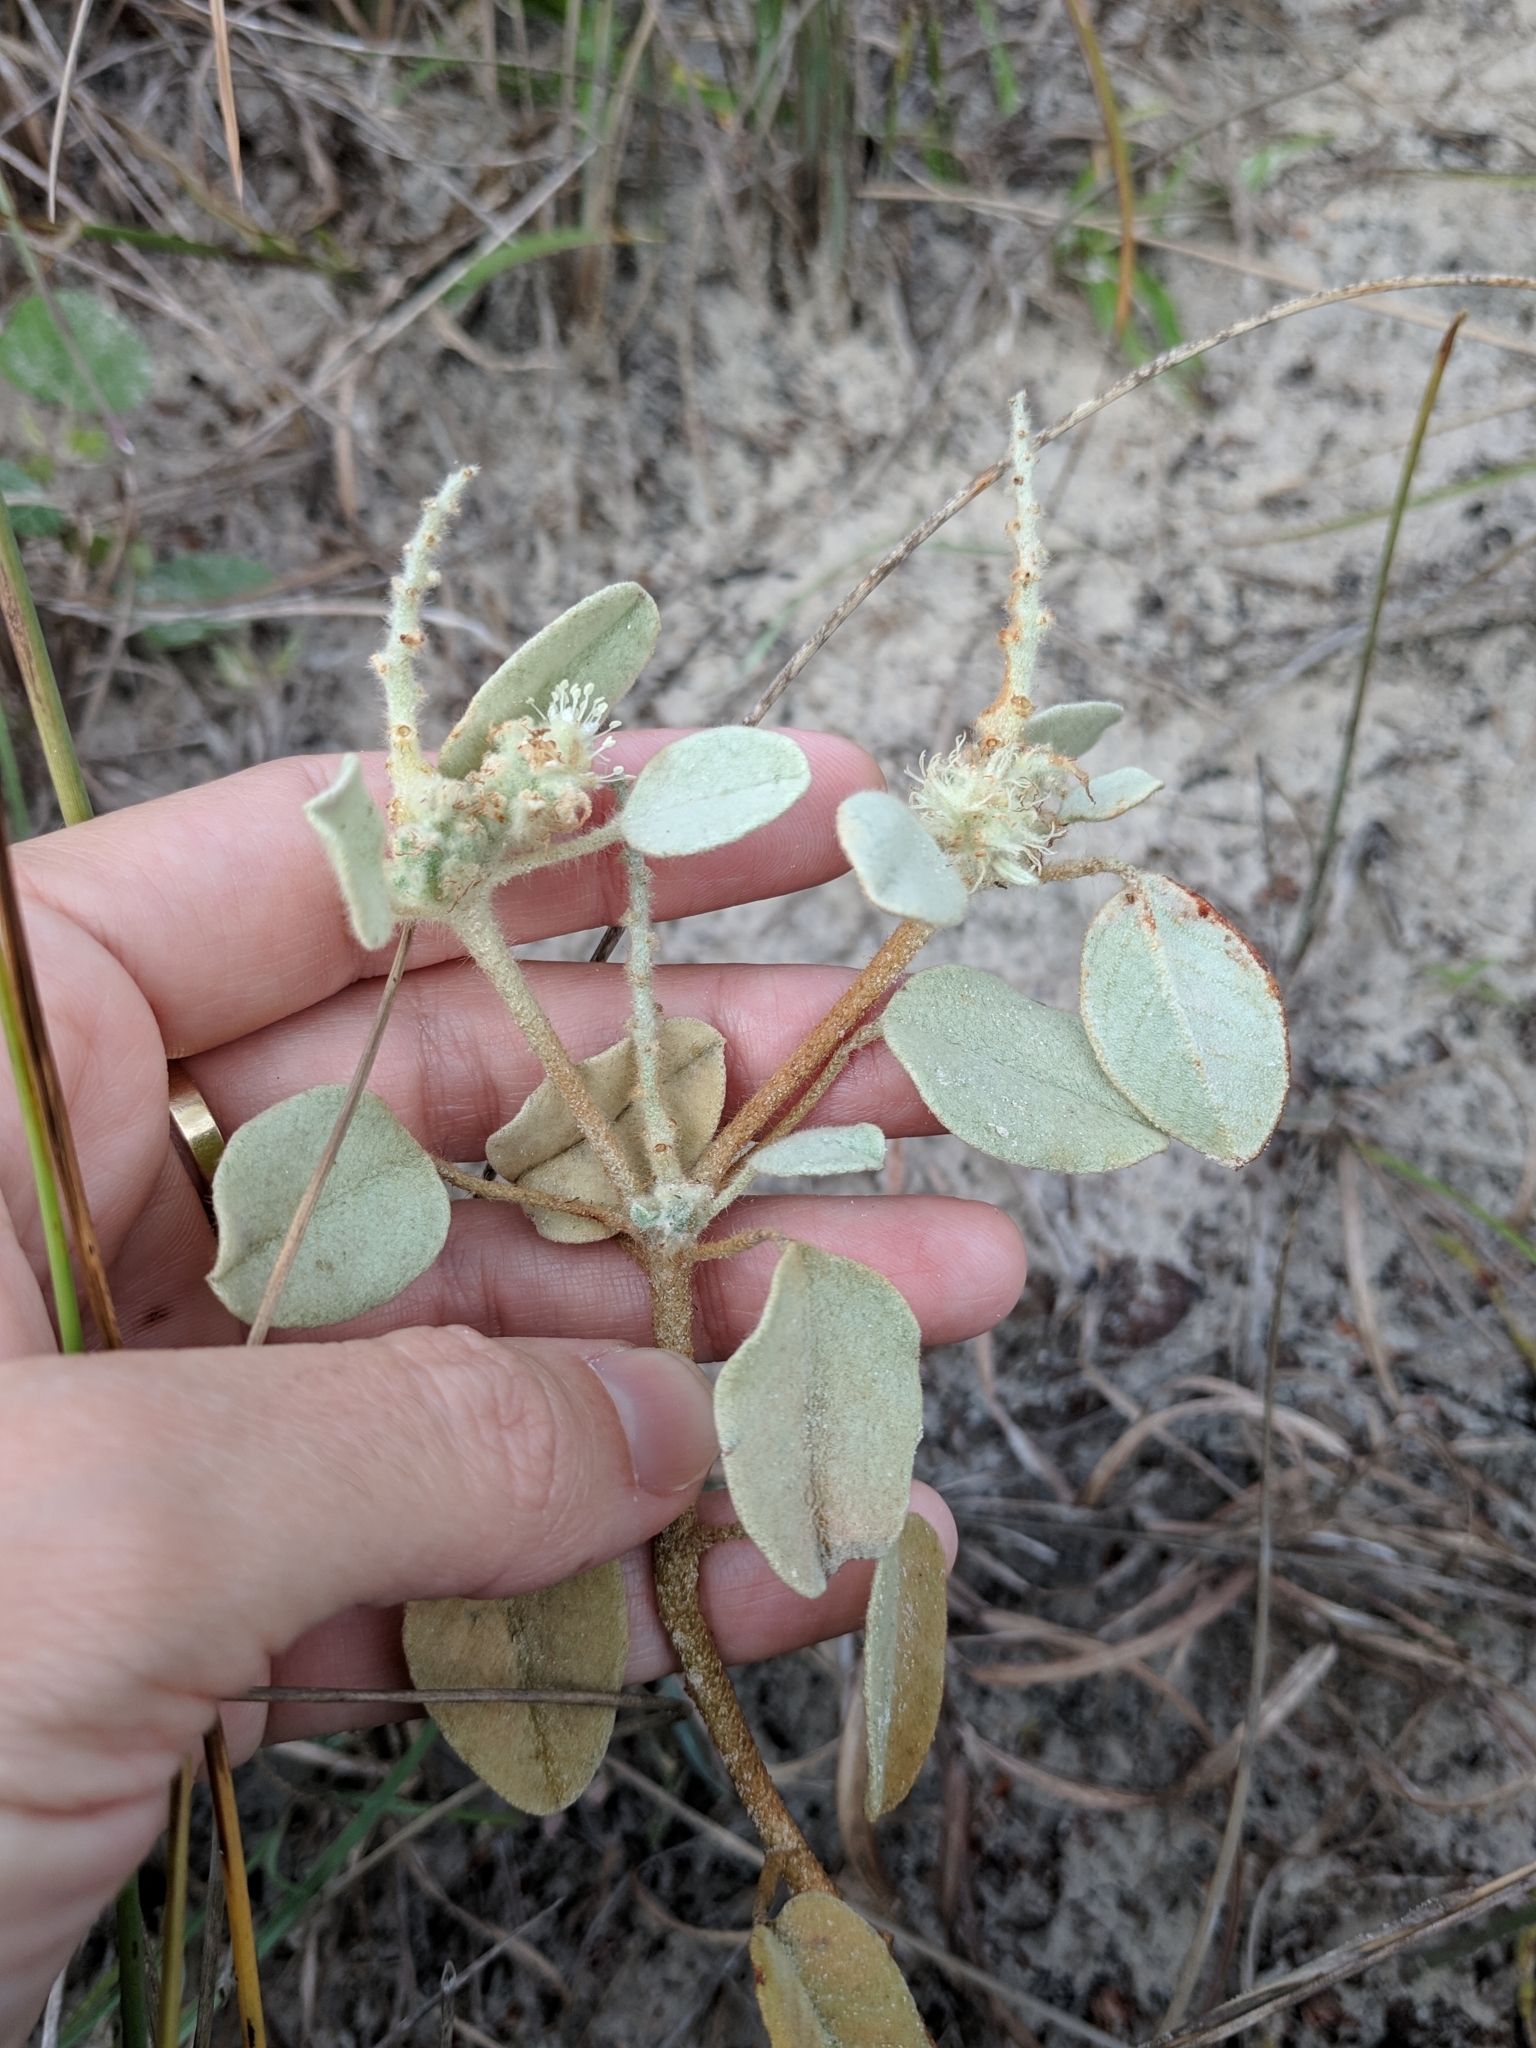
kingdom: Plantae
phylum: Tracheophyta
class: Magnoliopsida
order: Malpighiales
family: Euphorbiaceae
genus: Croton
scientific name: Croton coryi
